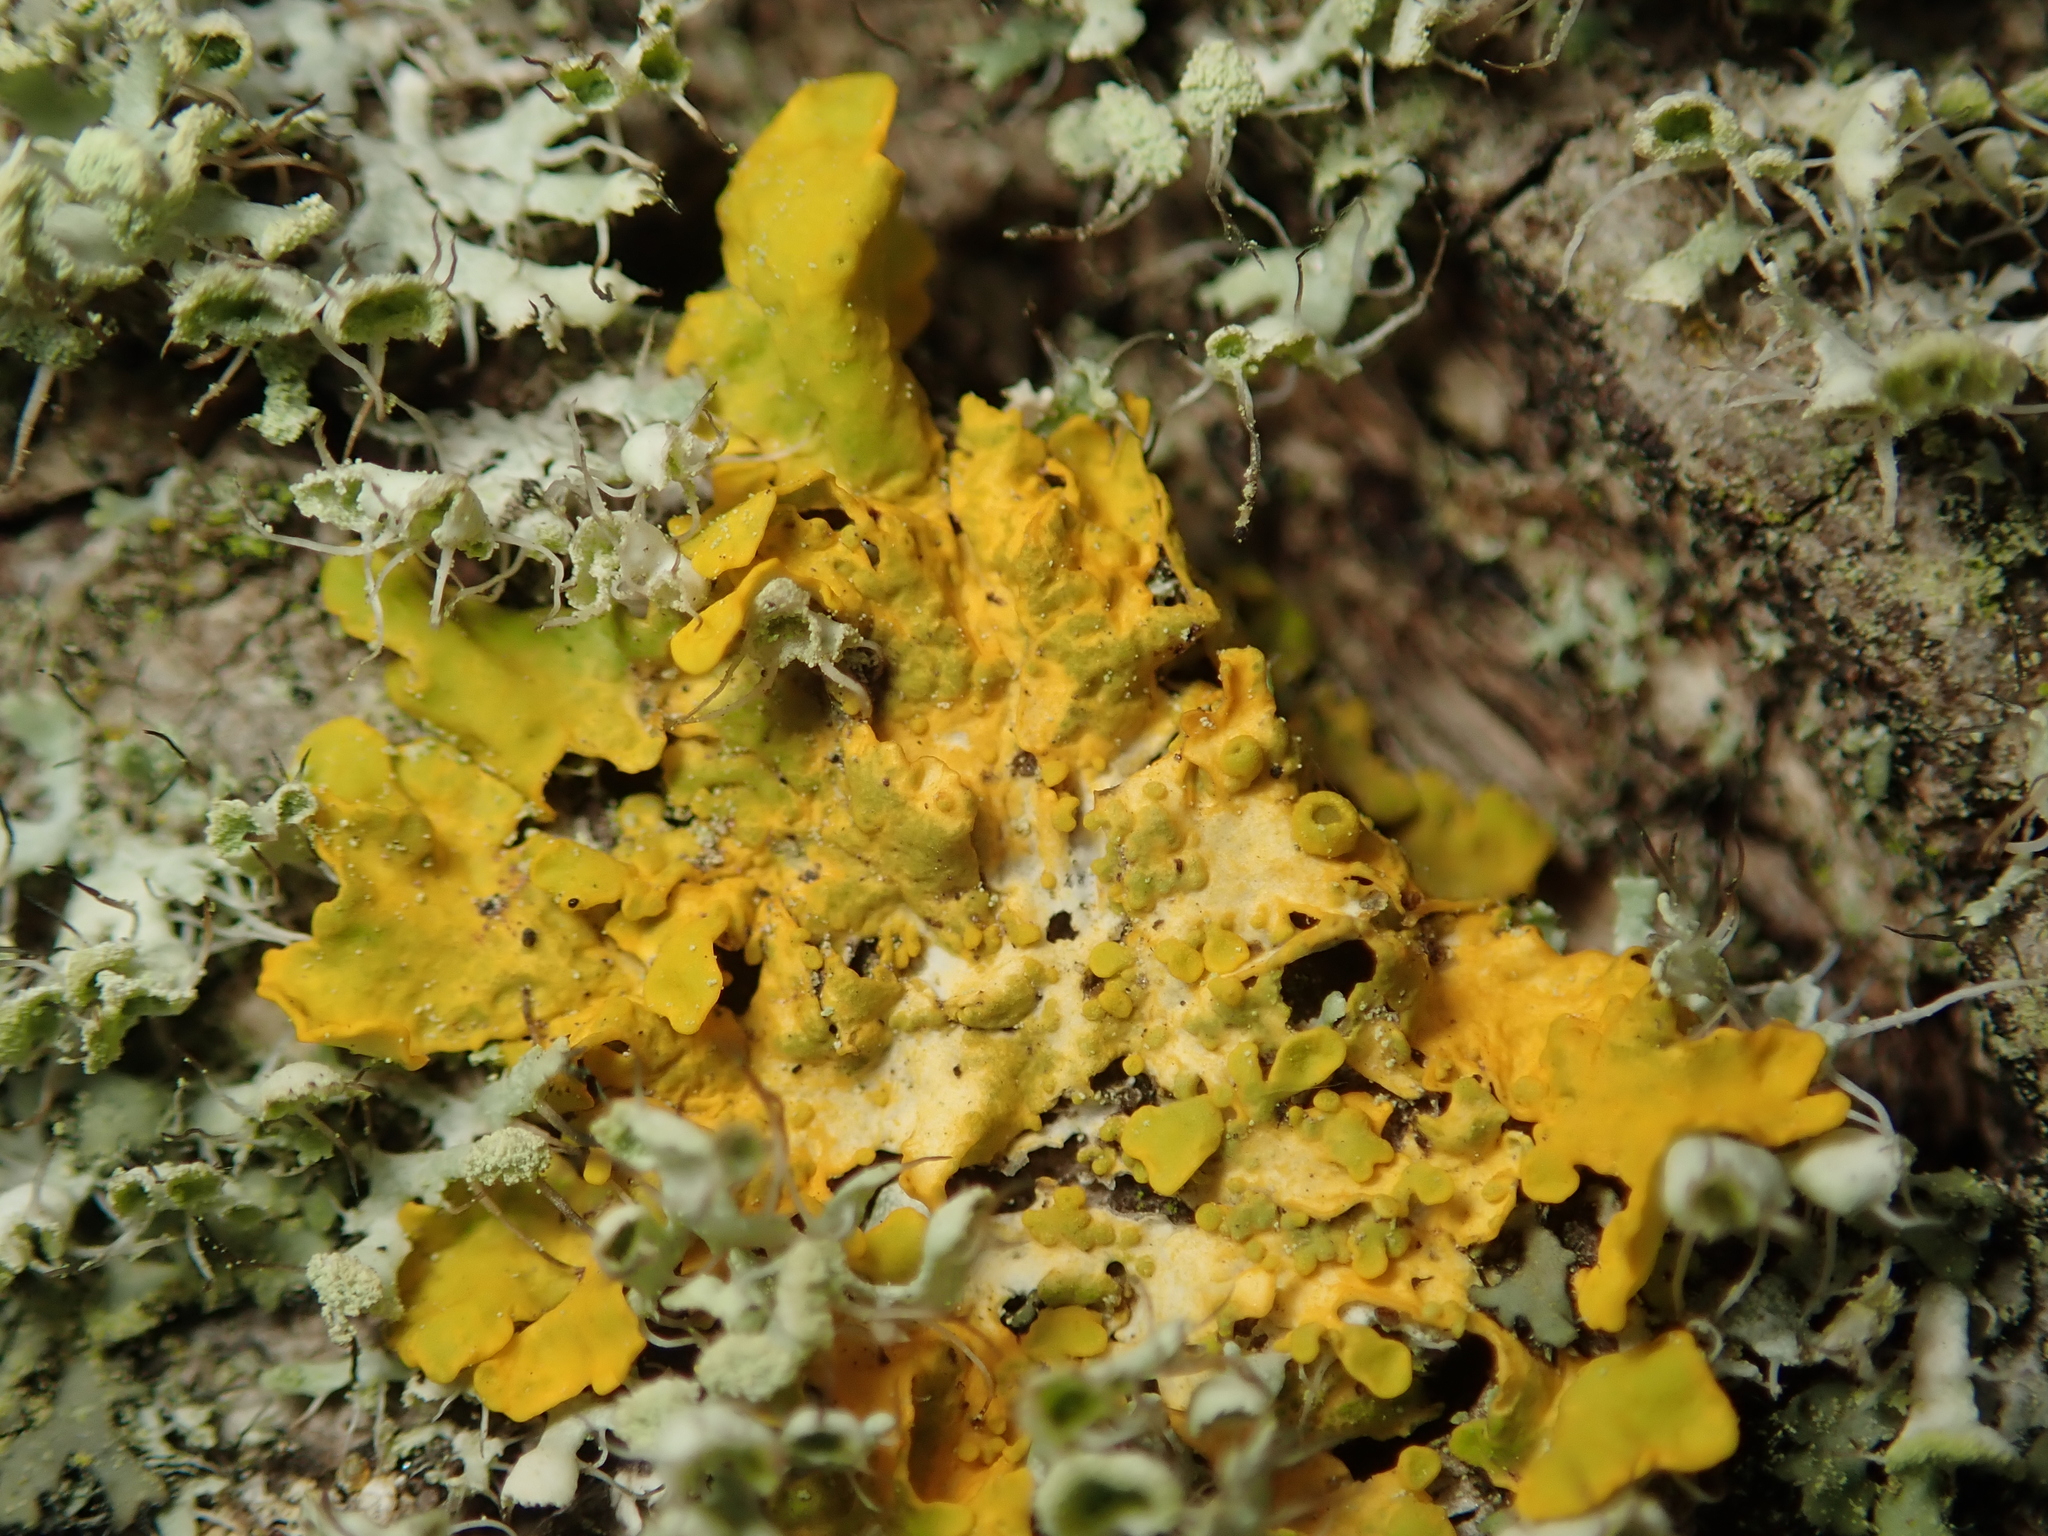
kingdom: Fungi
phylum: Ascomycota
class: Lecanoromycetes
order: Teloschistales
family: Teloschistaceae
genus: Xanthoria
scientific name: Xanthoria parietina
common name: Common orange lichen
